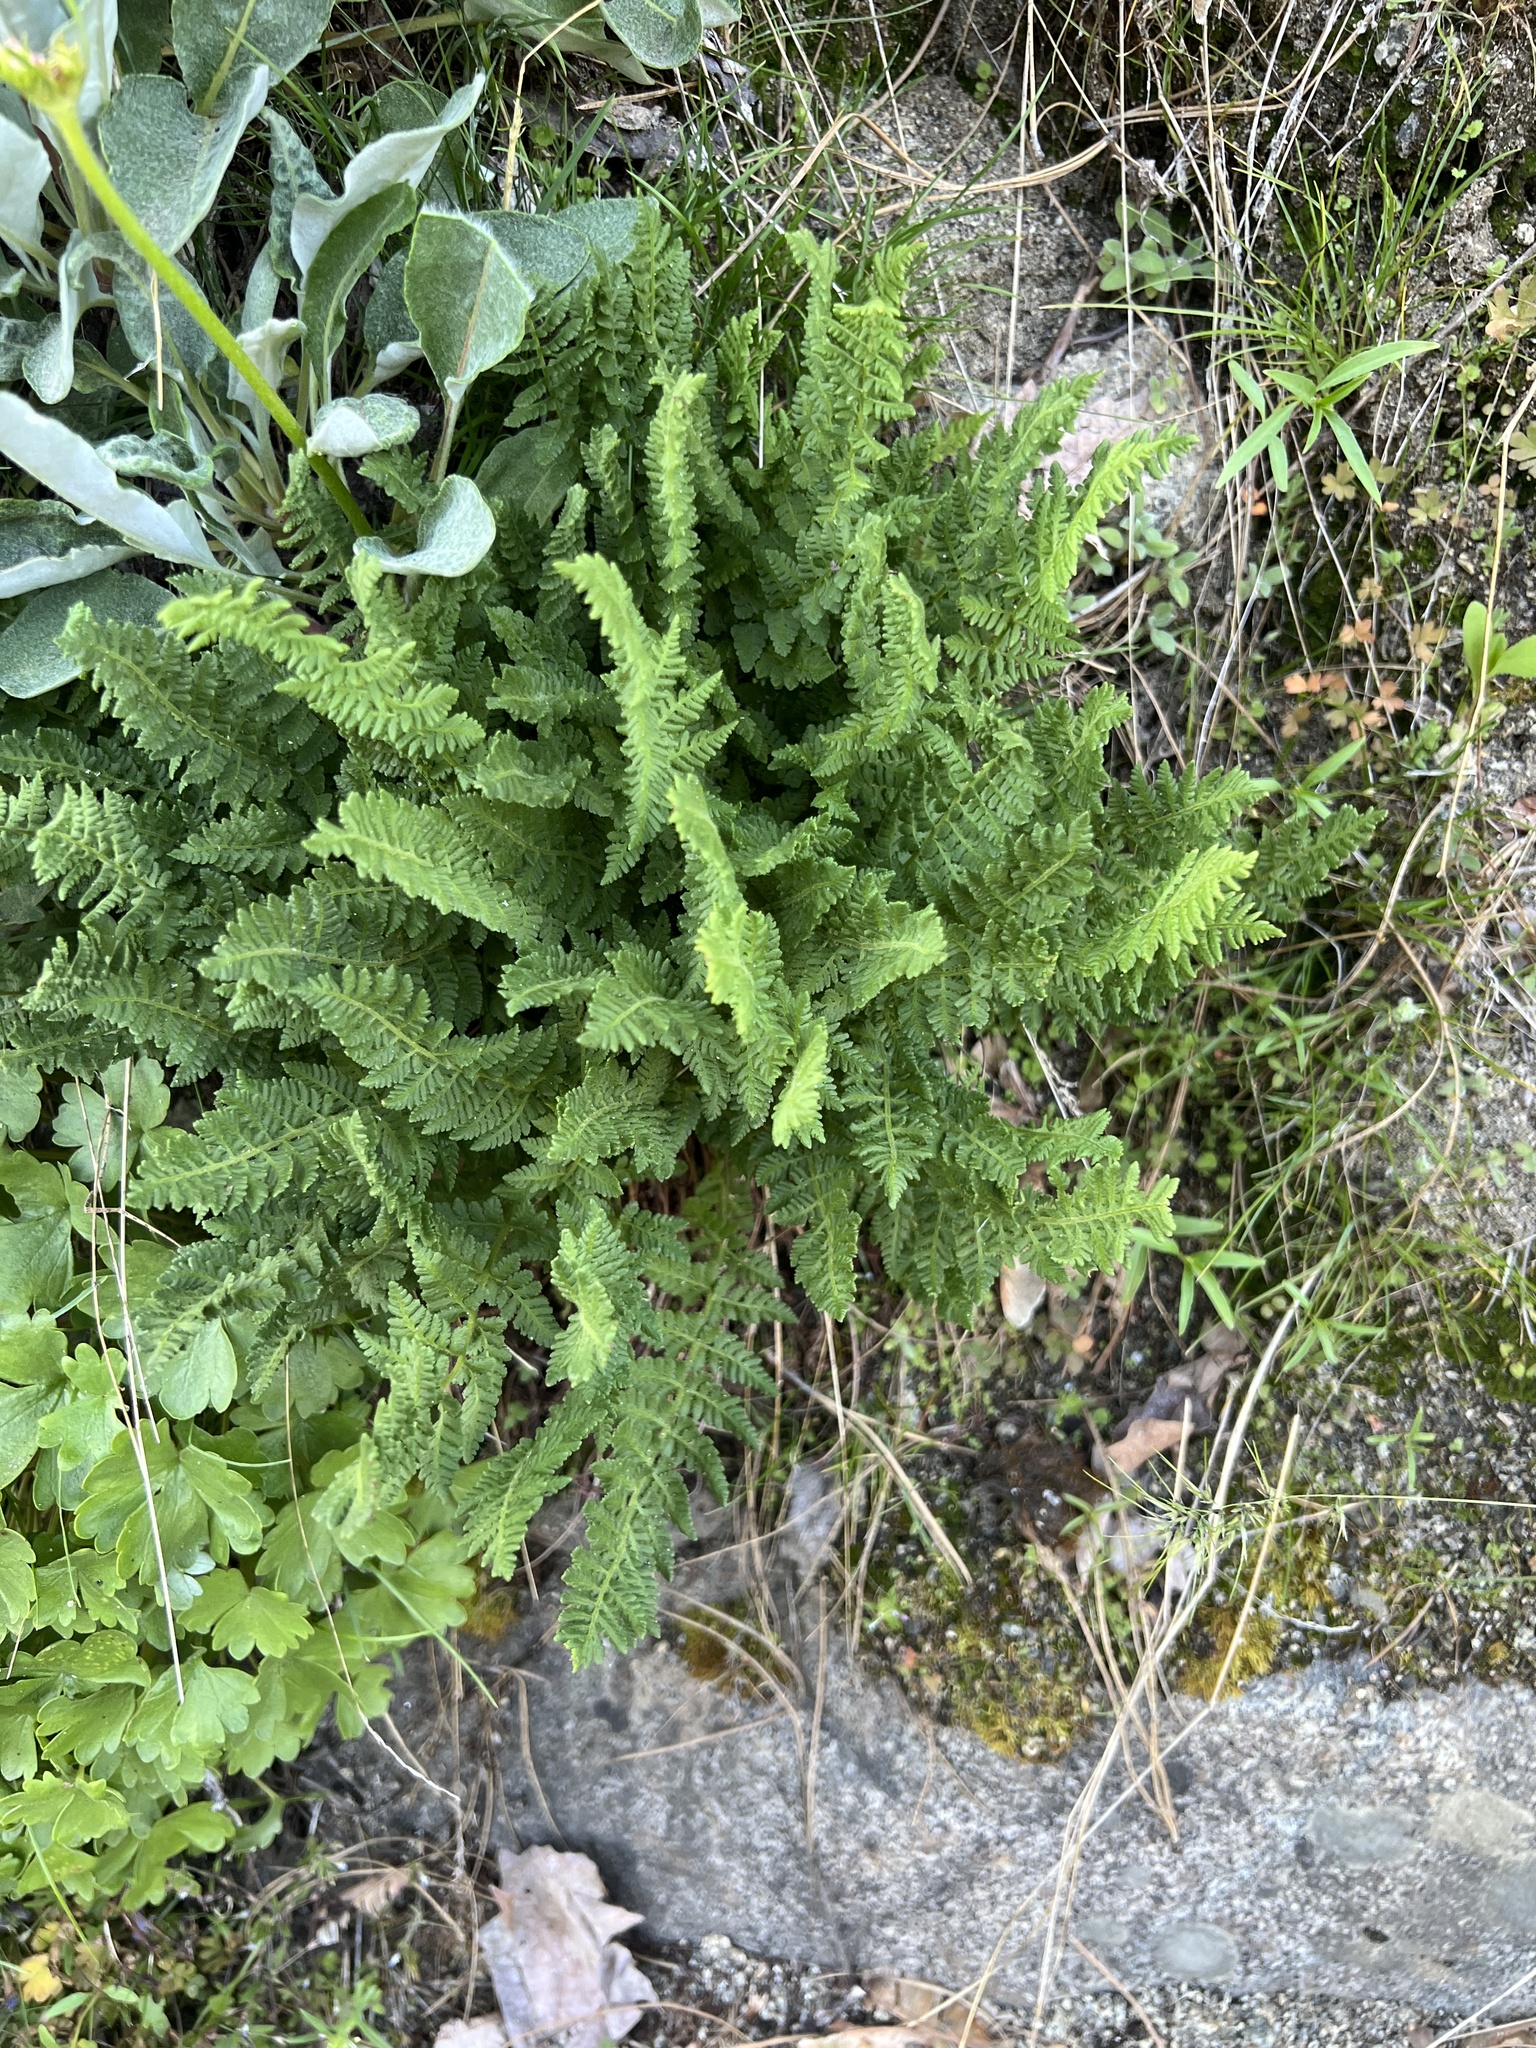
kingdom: Plantae
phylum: Tracheophyta
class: Polypodiopsida
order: Polypodiales
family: Woodsiaceae
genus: Physematium
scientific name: Physematium scopulinum
